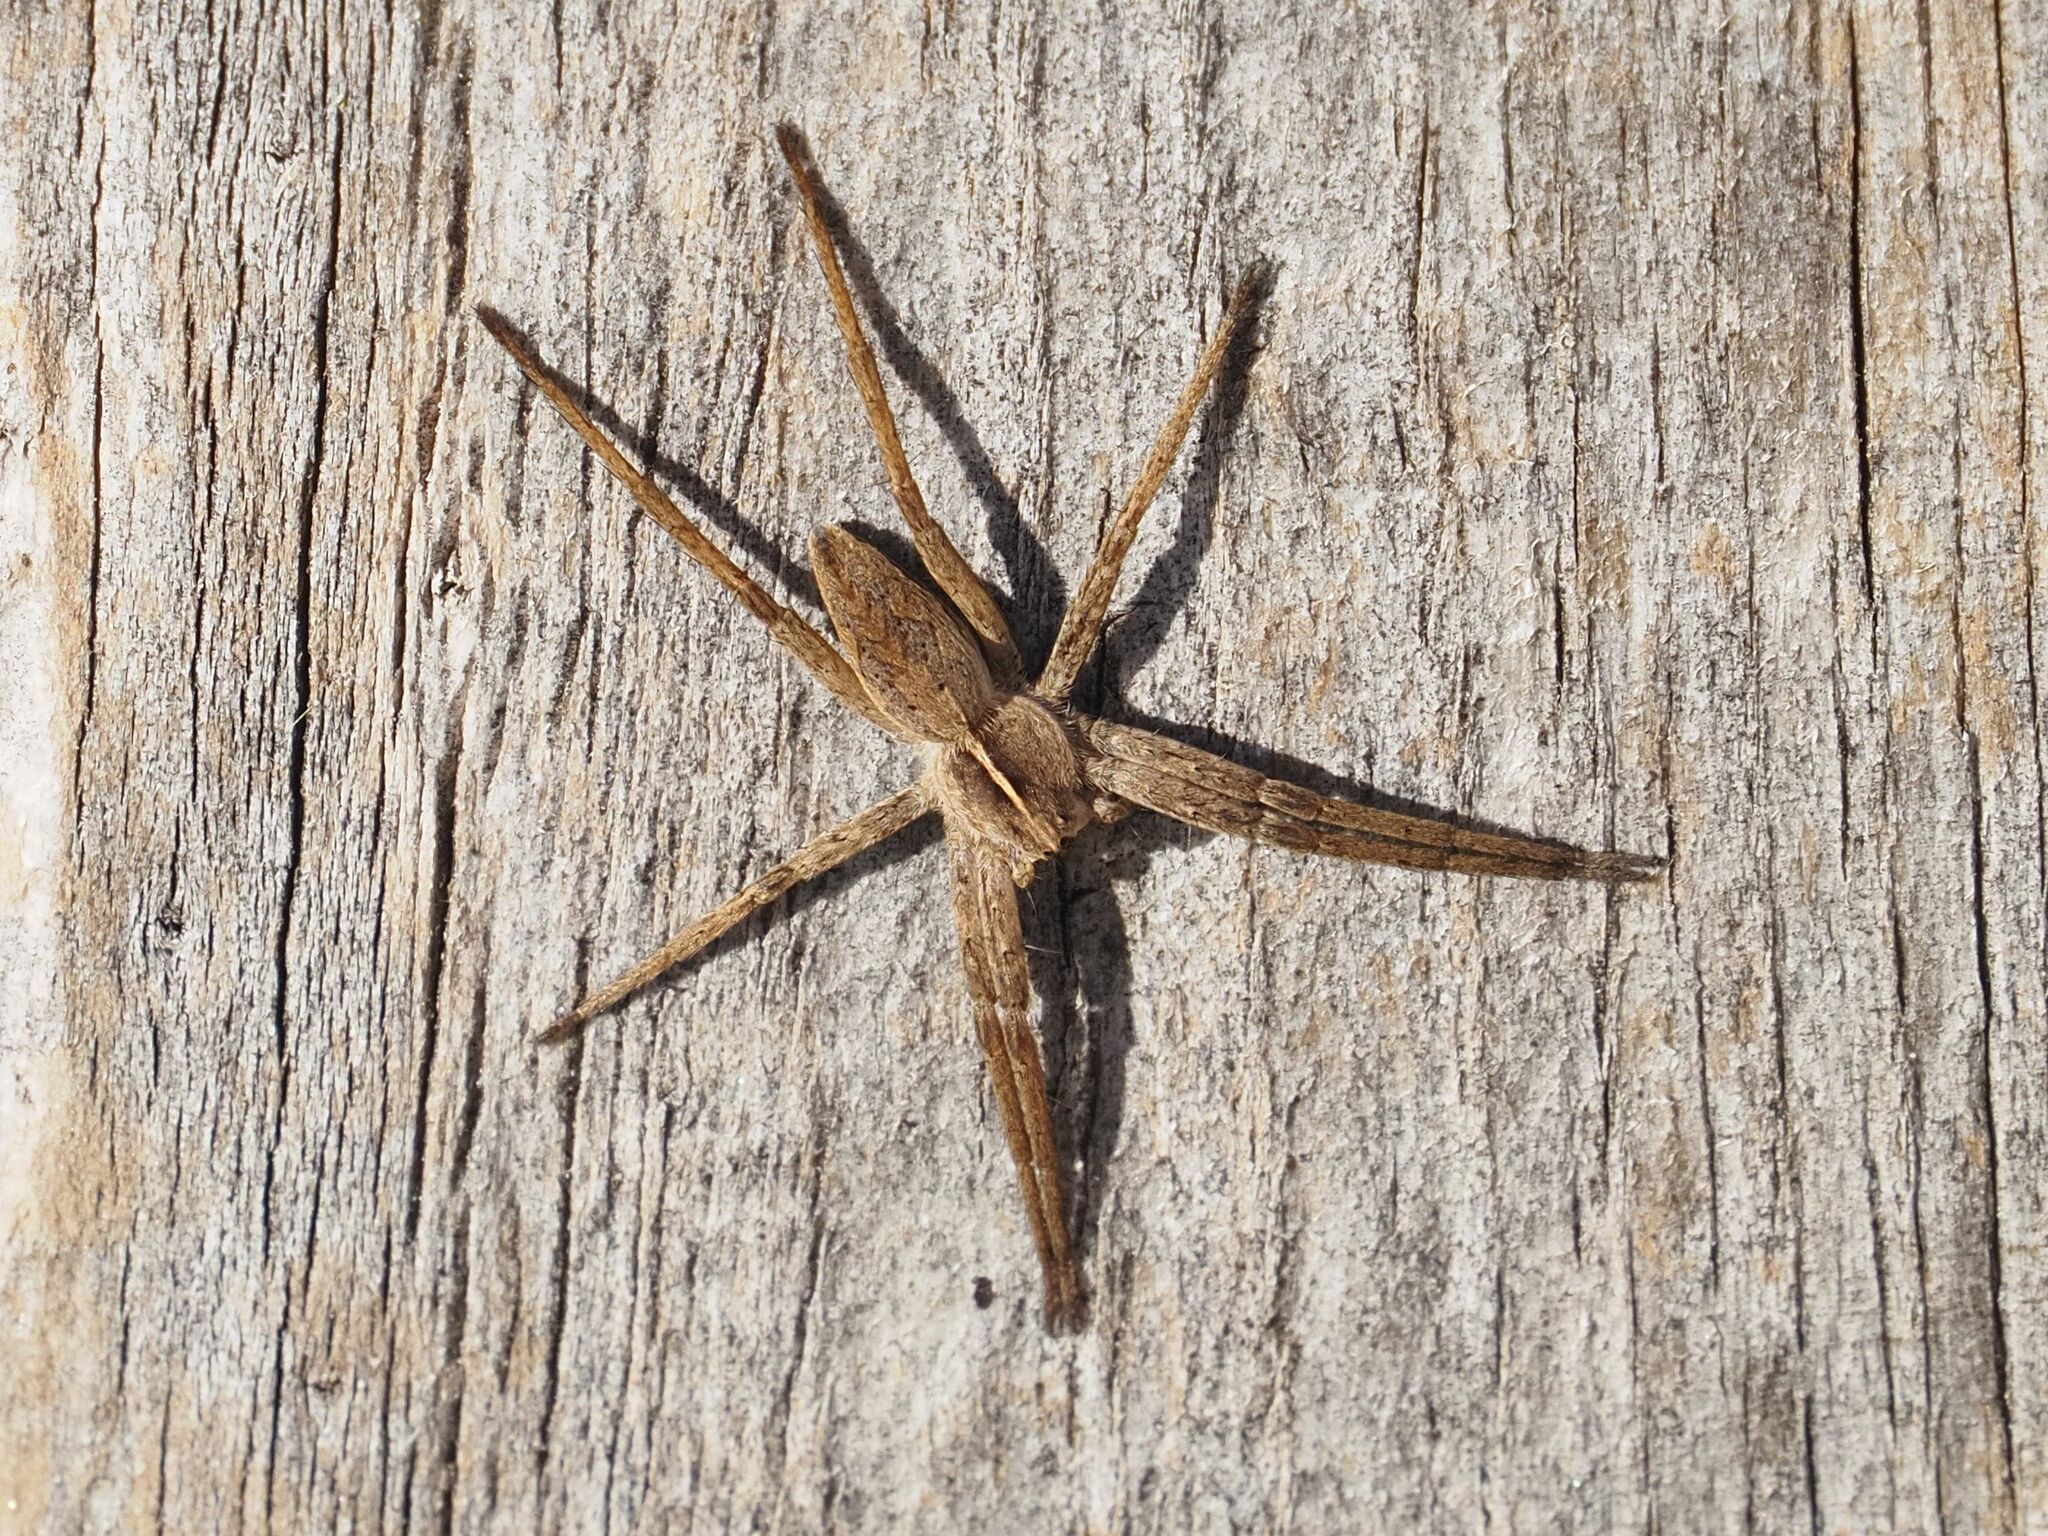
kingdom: Animalia
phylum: Arthropoda
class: Arachnida
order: Araneae
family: Pisauridae
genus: Pisaura
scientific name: Pisaura mirabilis
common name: Tent spider
